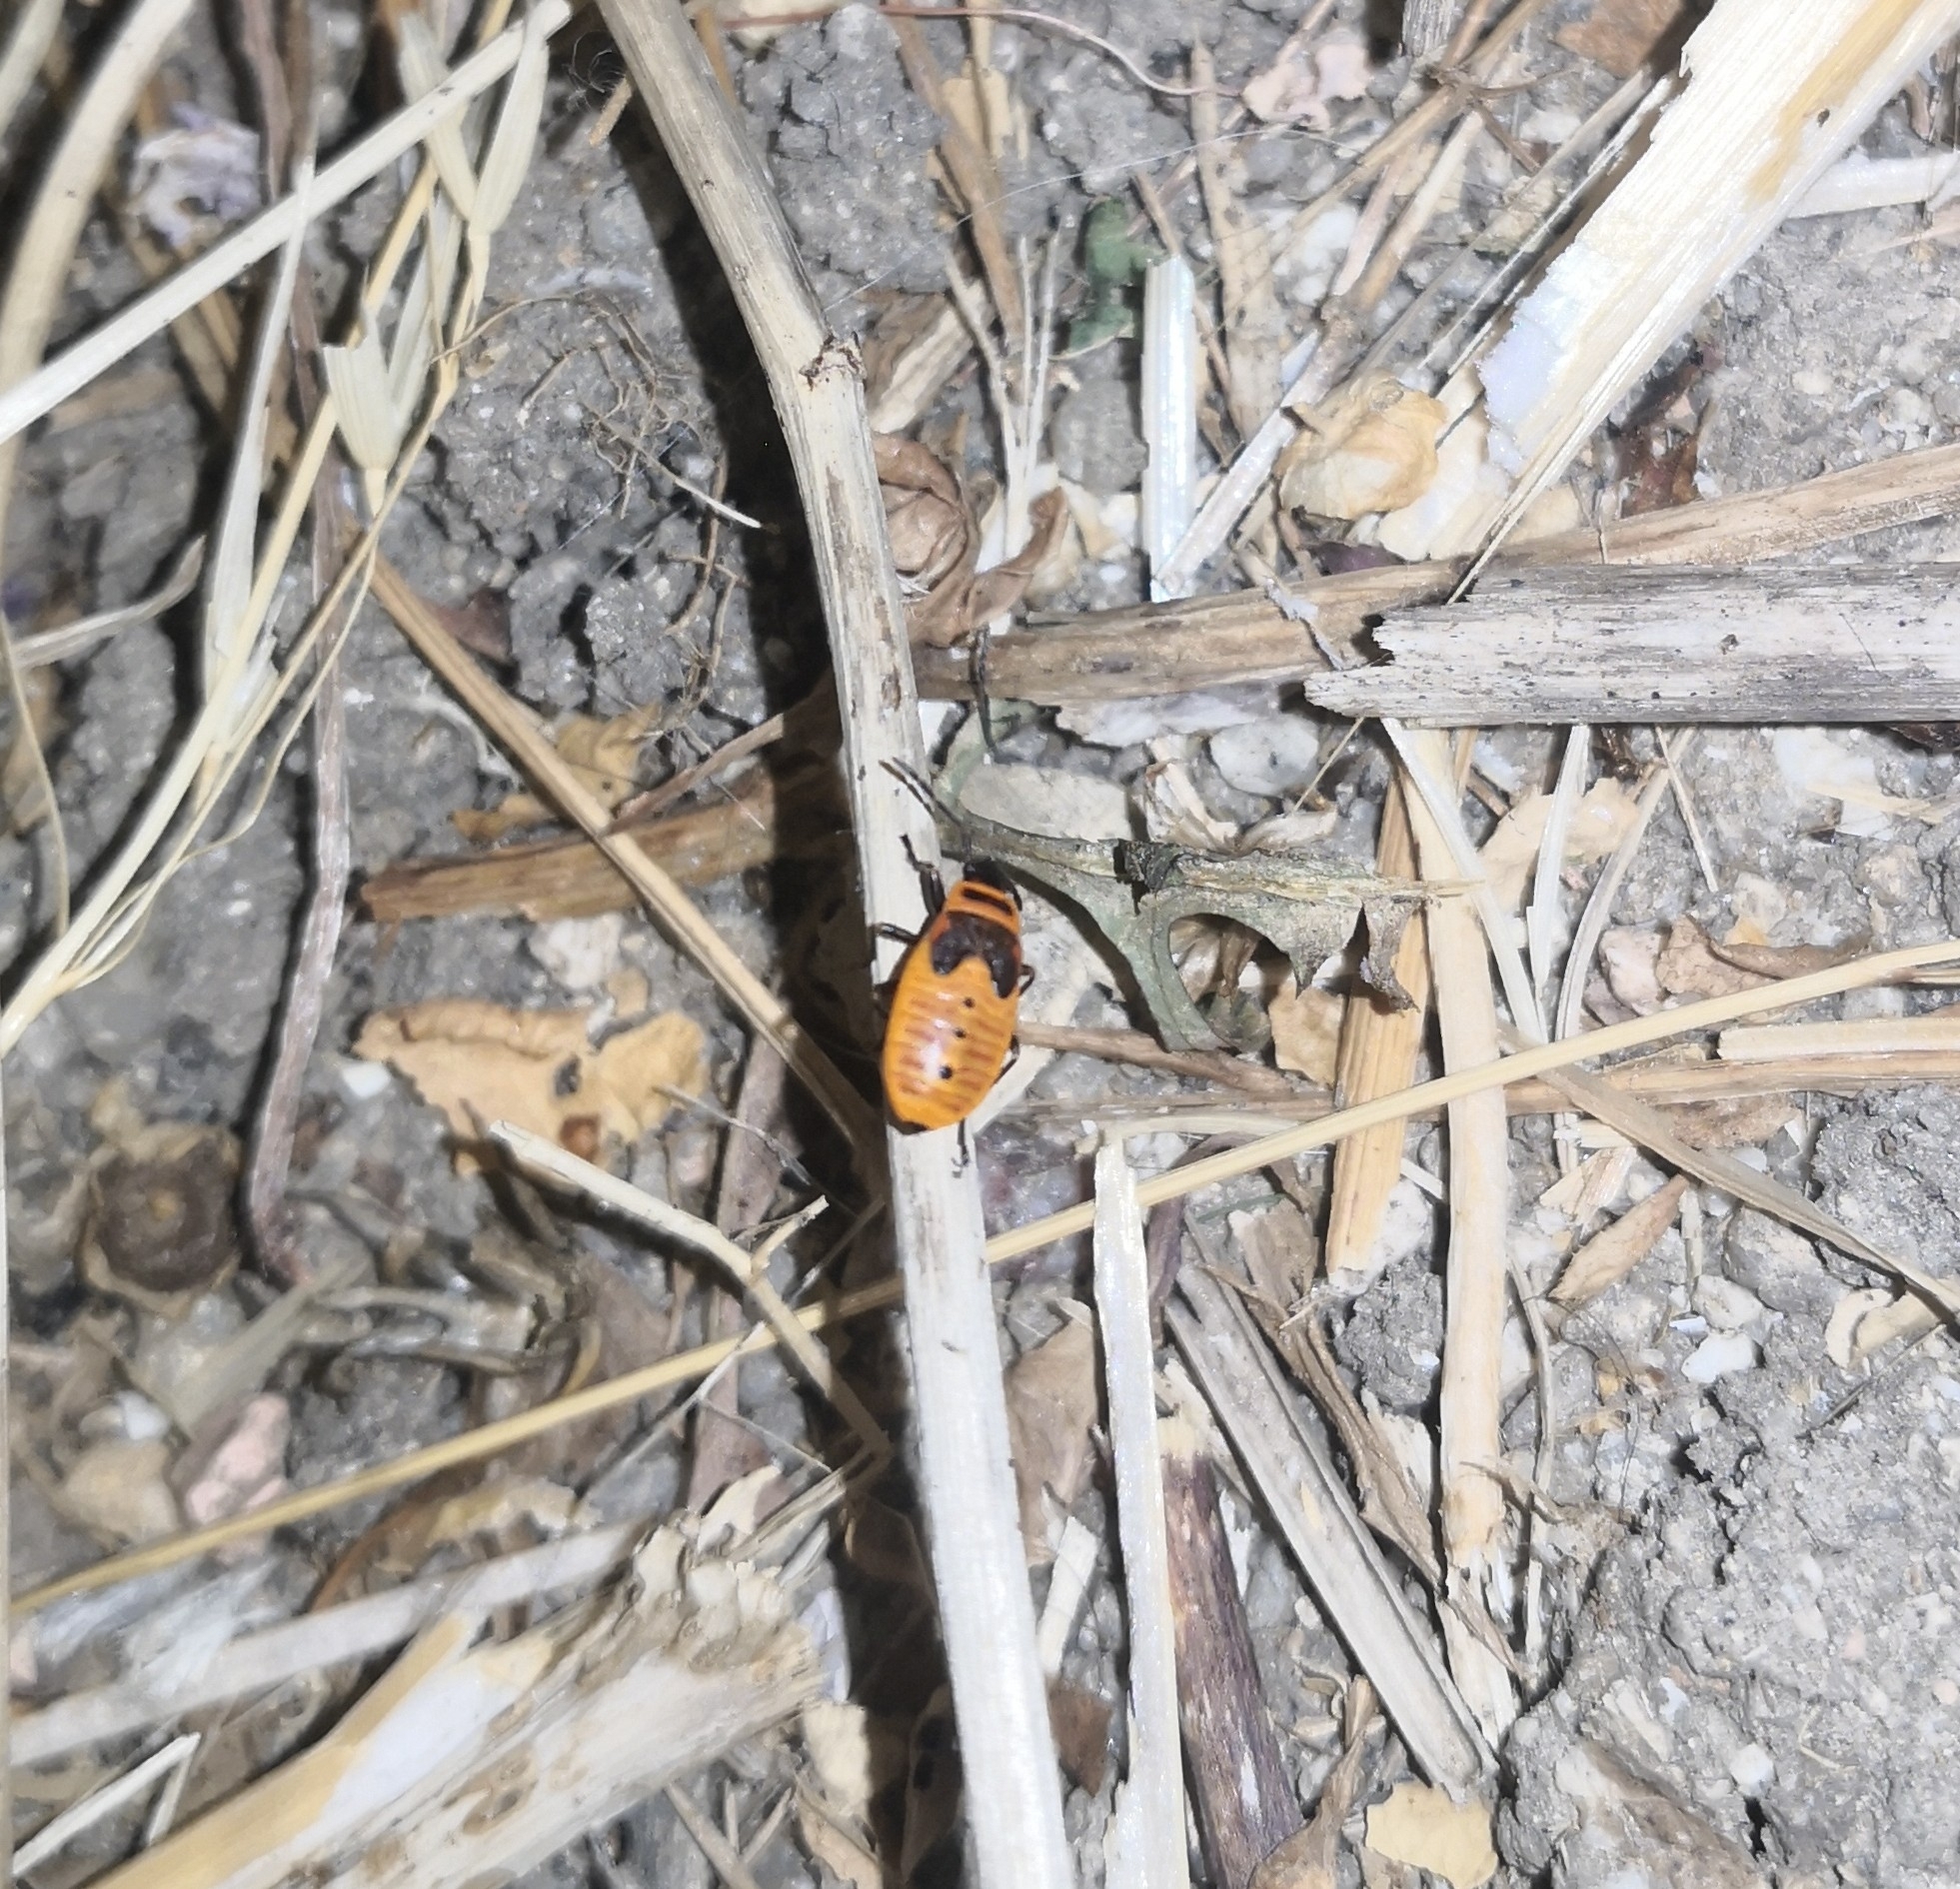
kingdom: Animalia
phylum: Arthropoda
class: Insecta
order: Hemiptera
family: Pyrrhocoridae
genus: Pyrrhocoris
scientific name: Pyrrhocoris apterus
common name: Firebug
